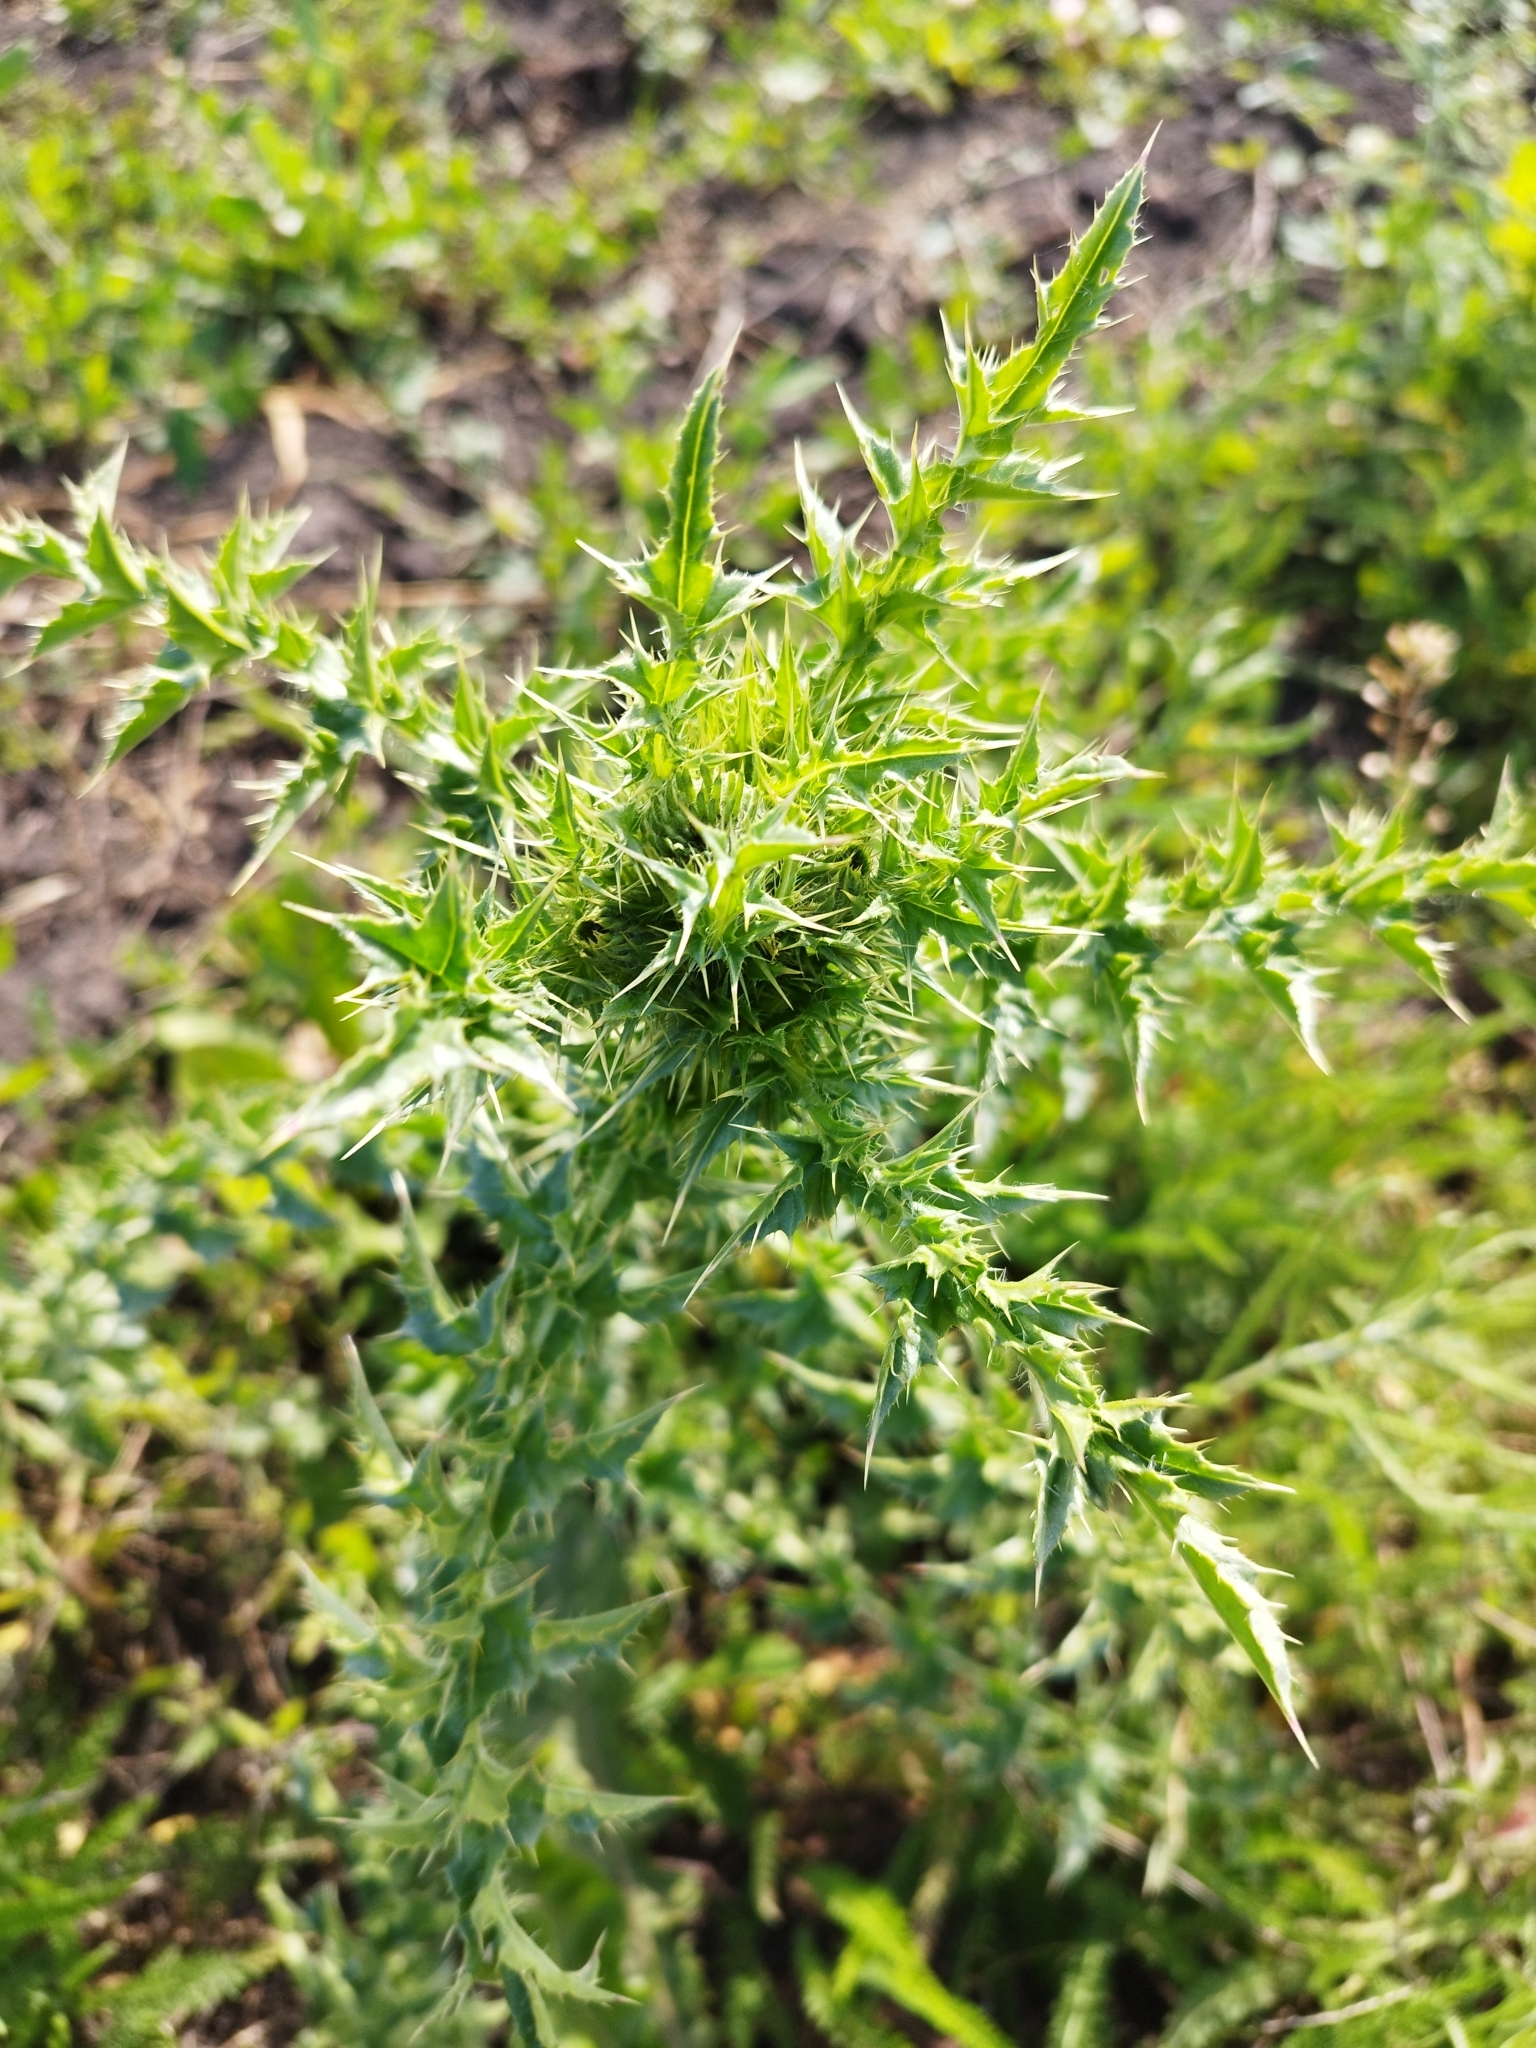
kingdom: Plantae
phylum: Tracheophyta
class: Magnoliopsida
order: Asterales
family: Asteraceae
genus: Carduus
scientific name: Carduus acanthoides
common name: Plumeless thistle
